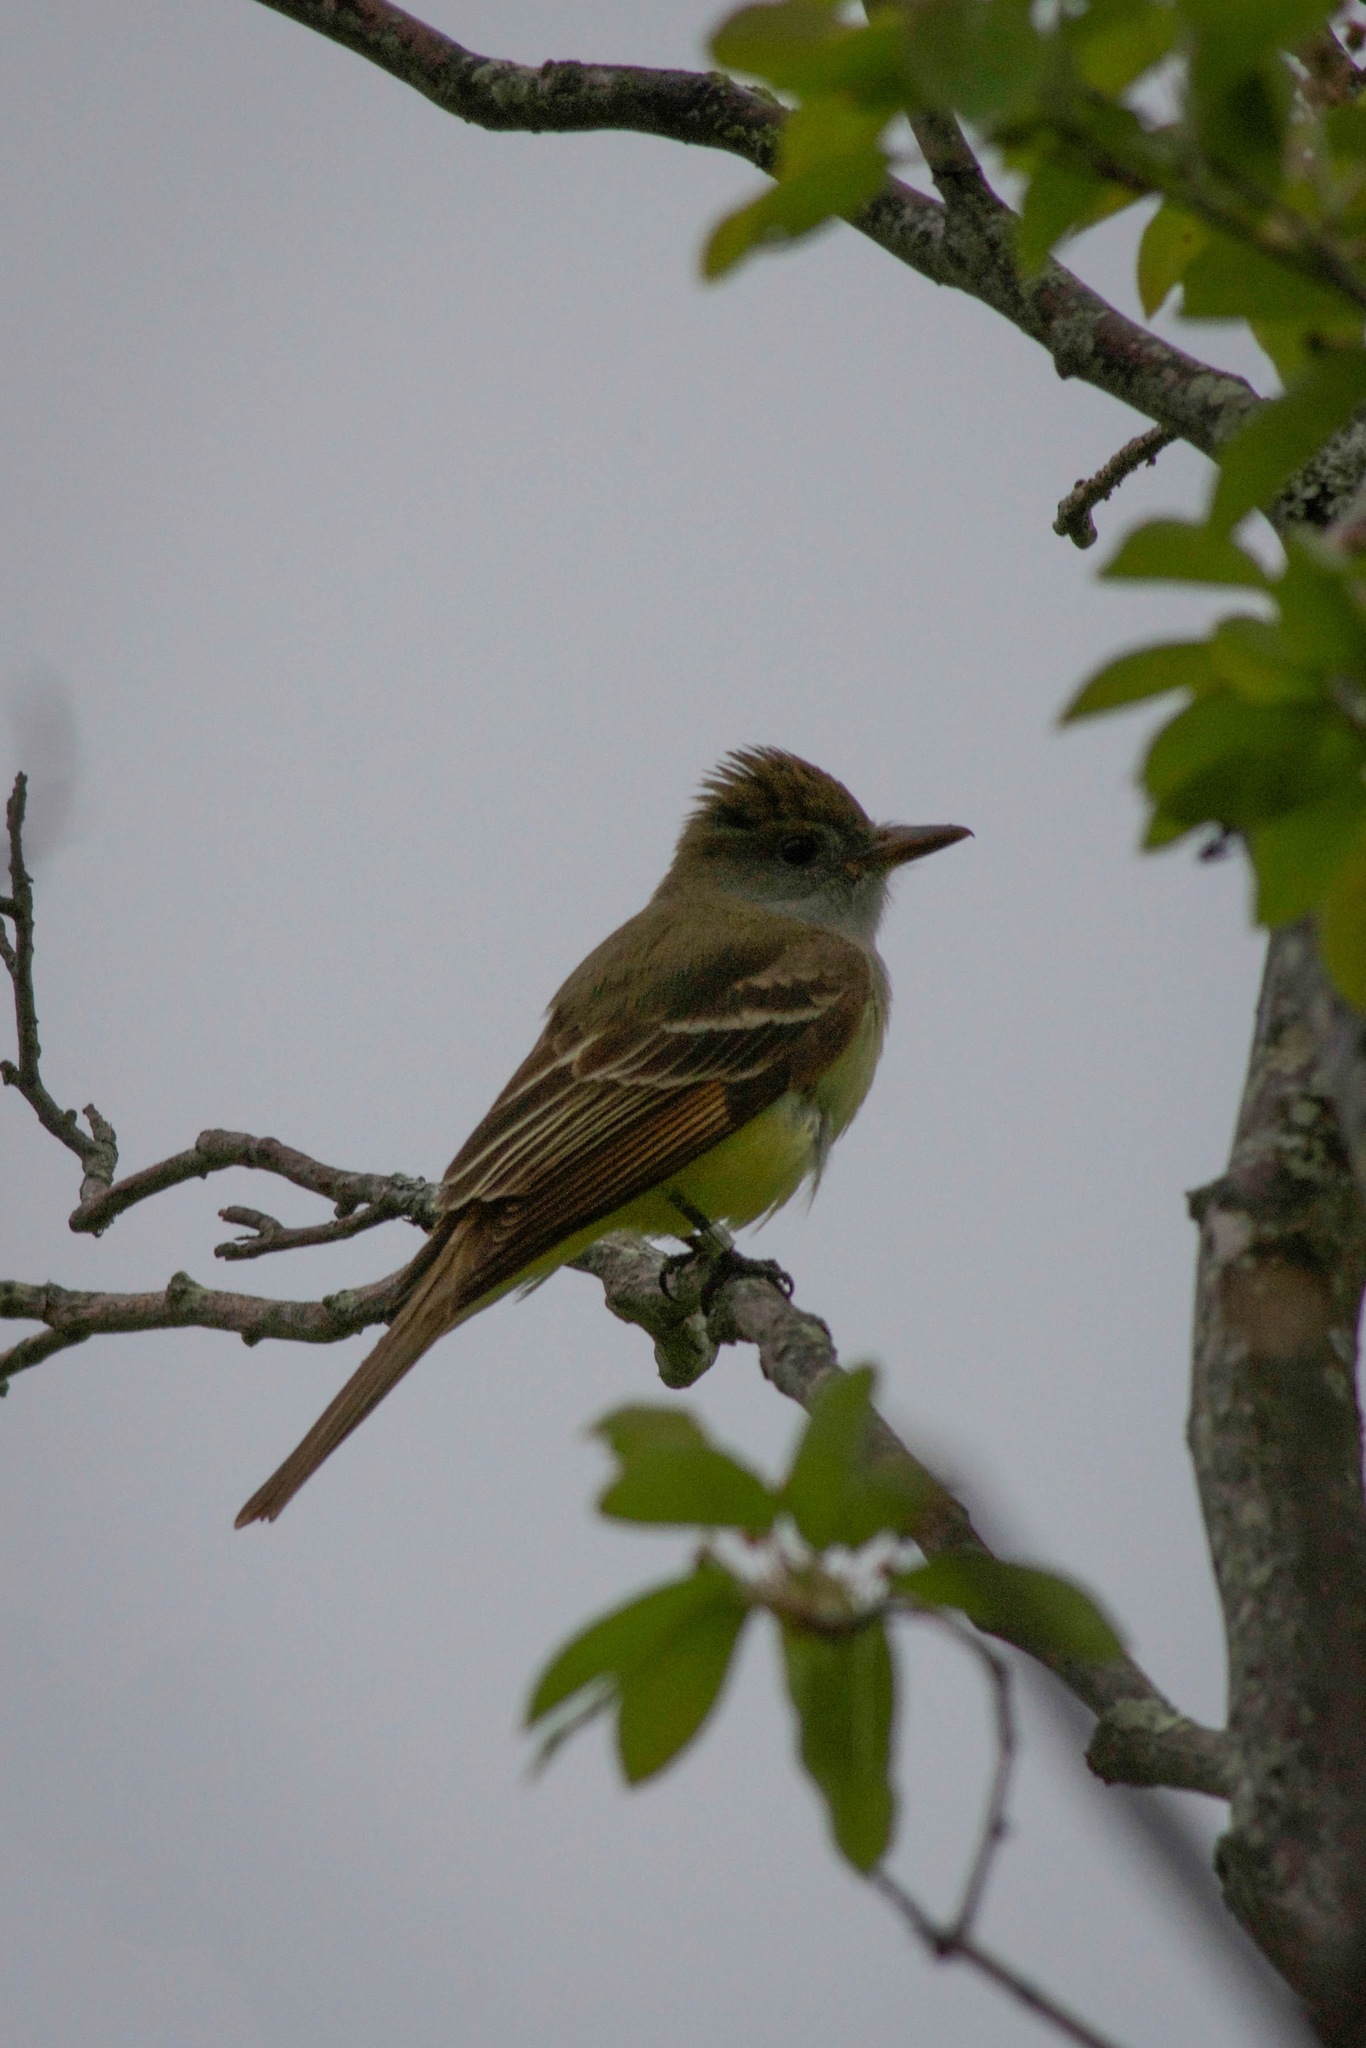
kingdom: Animalia
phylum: Chordata
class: Aves
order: Passeriformes
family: Tyrannidae
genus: Myiarchus
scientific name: Myiarchus crinitus
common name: Great crested flycatcher
